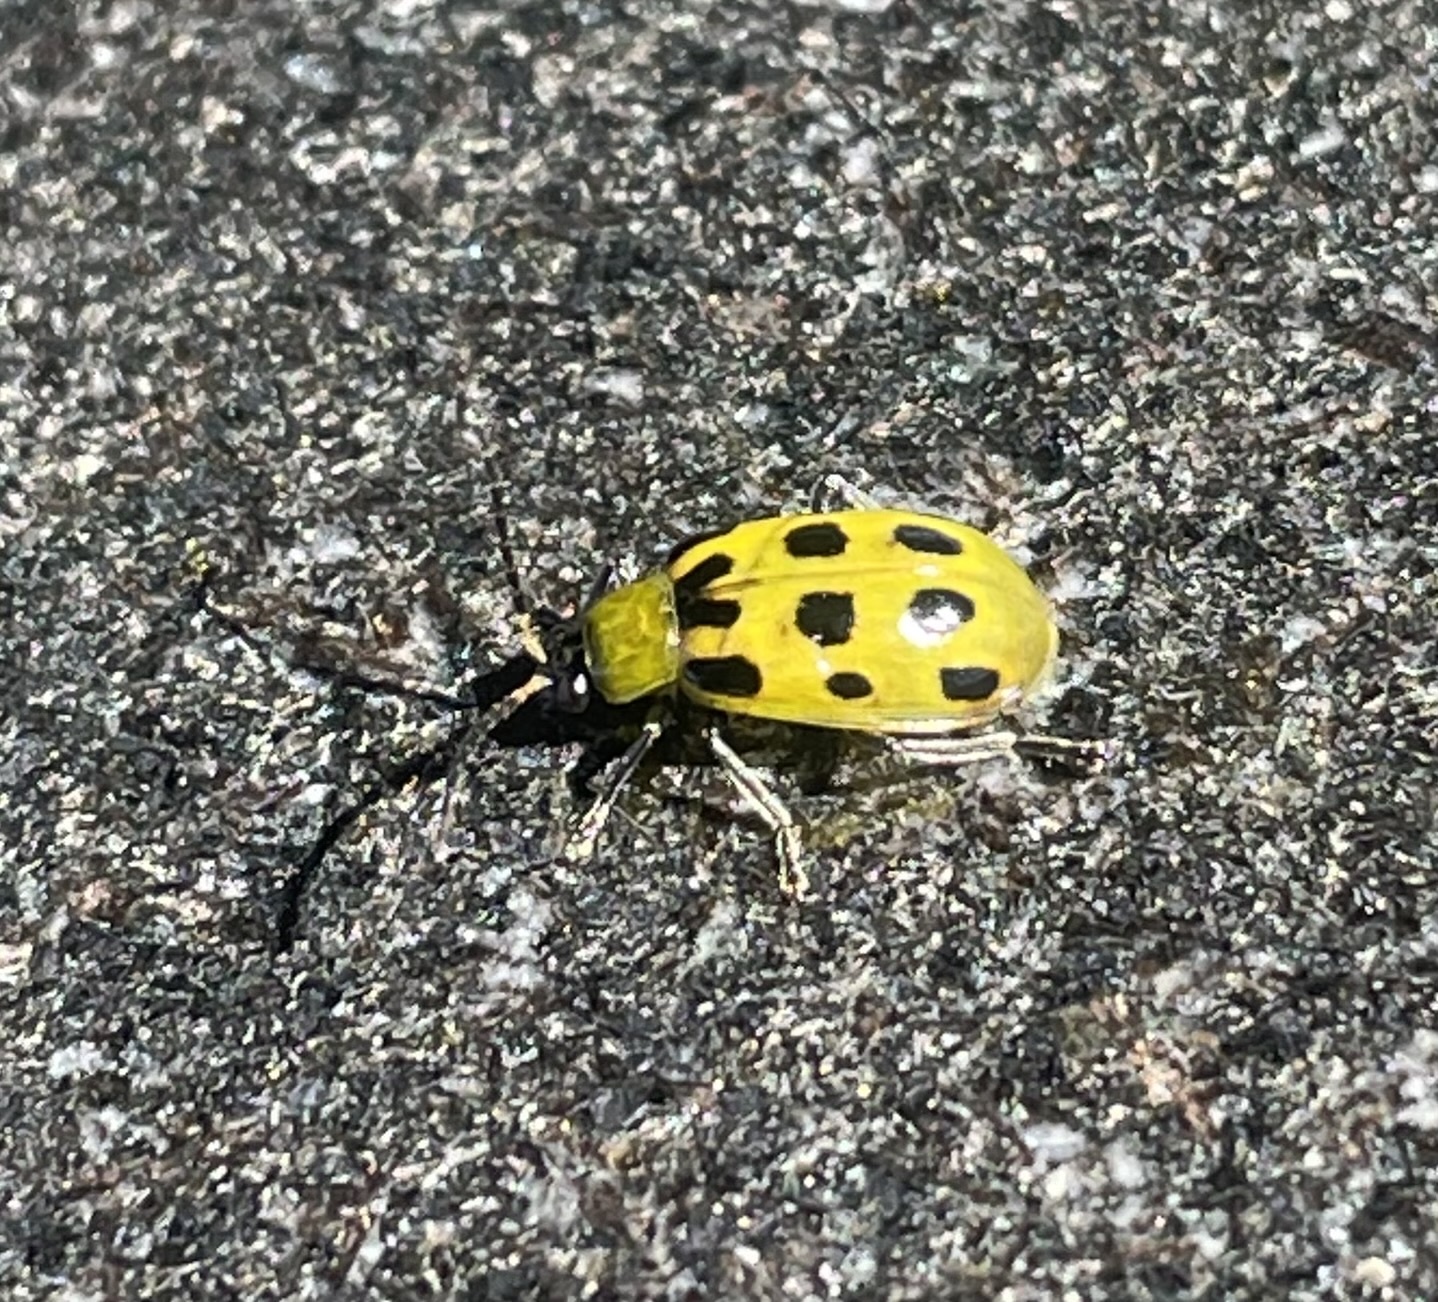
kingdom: Animalia
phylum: Arthropoda
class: Insecta
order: Coleoptera
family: Chrysomelidae
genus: Diabrotica
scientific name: Diabrotica undecimpunctata
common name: Spotted cucumber beetle
